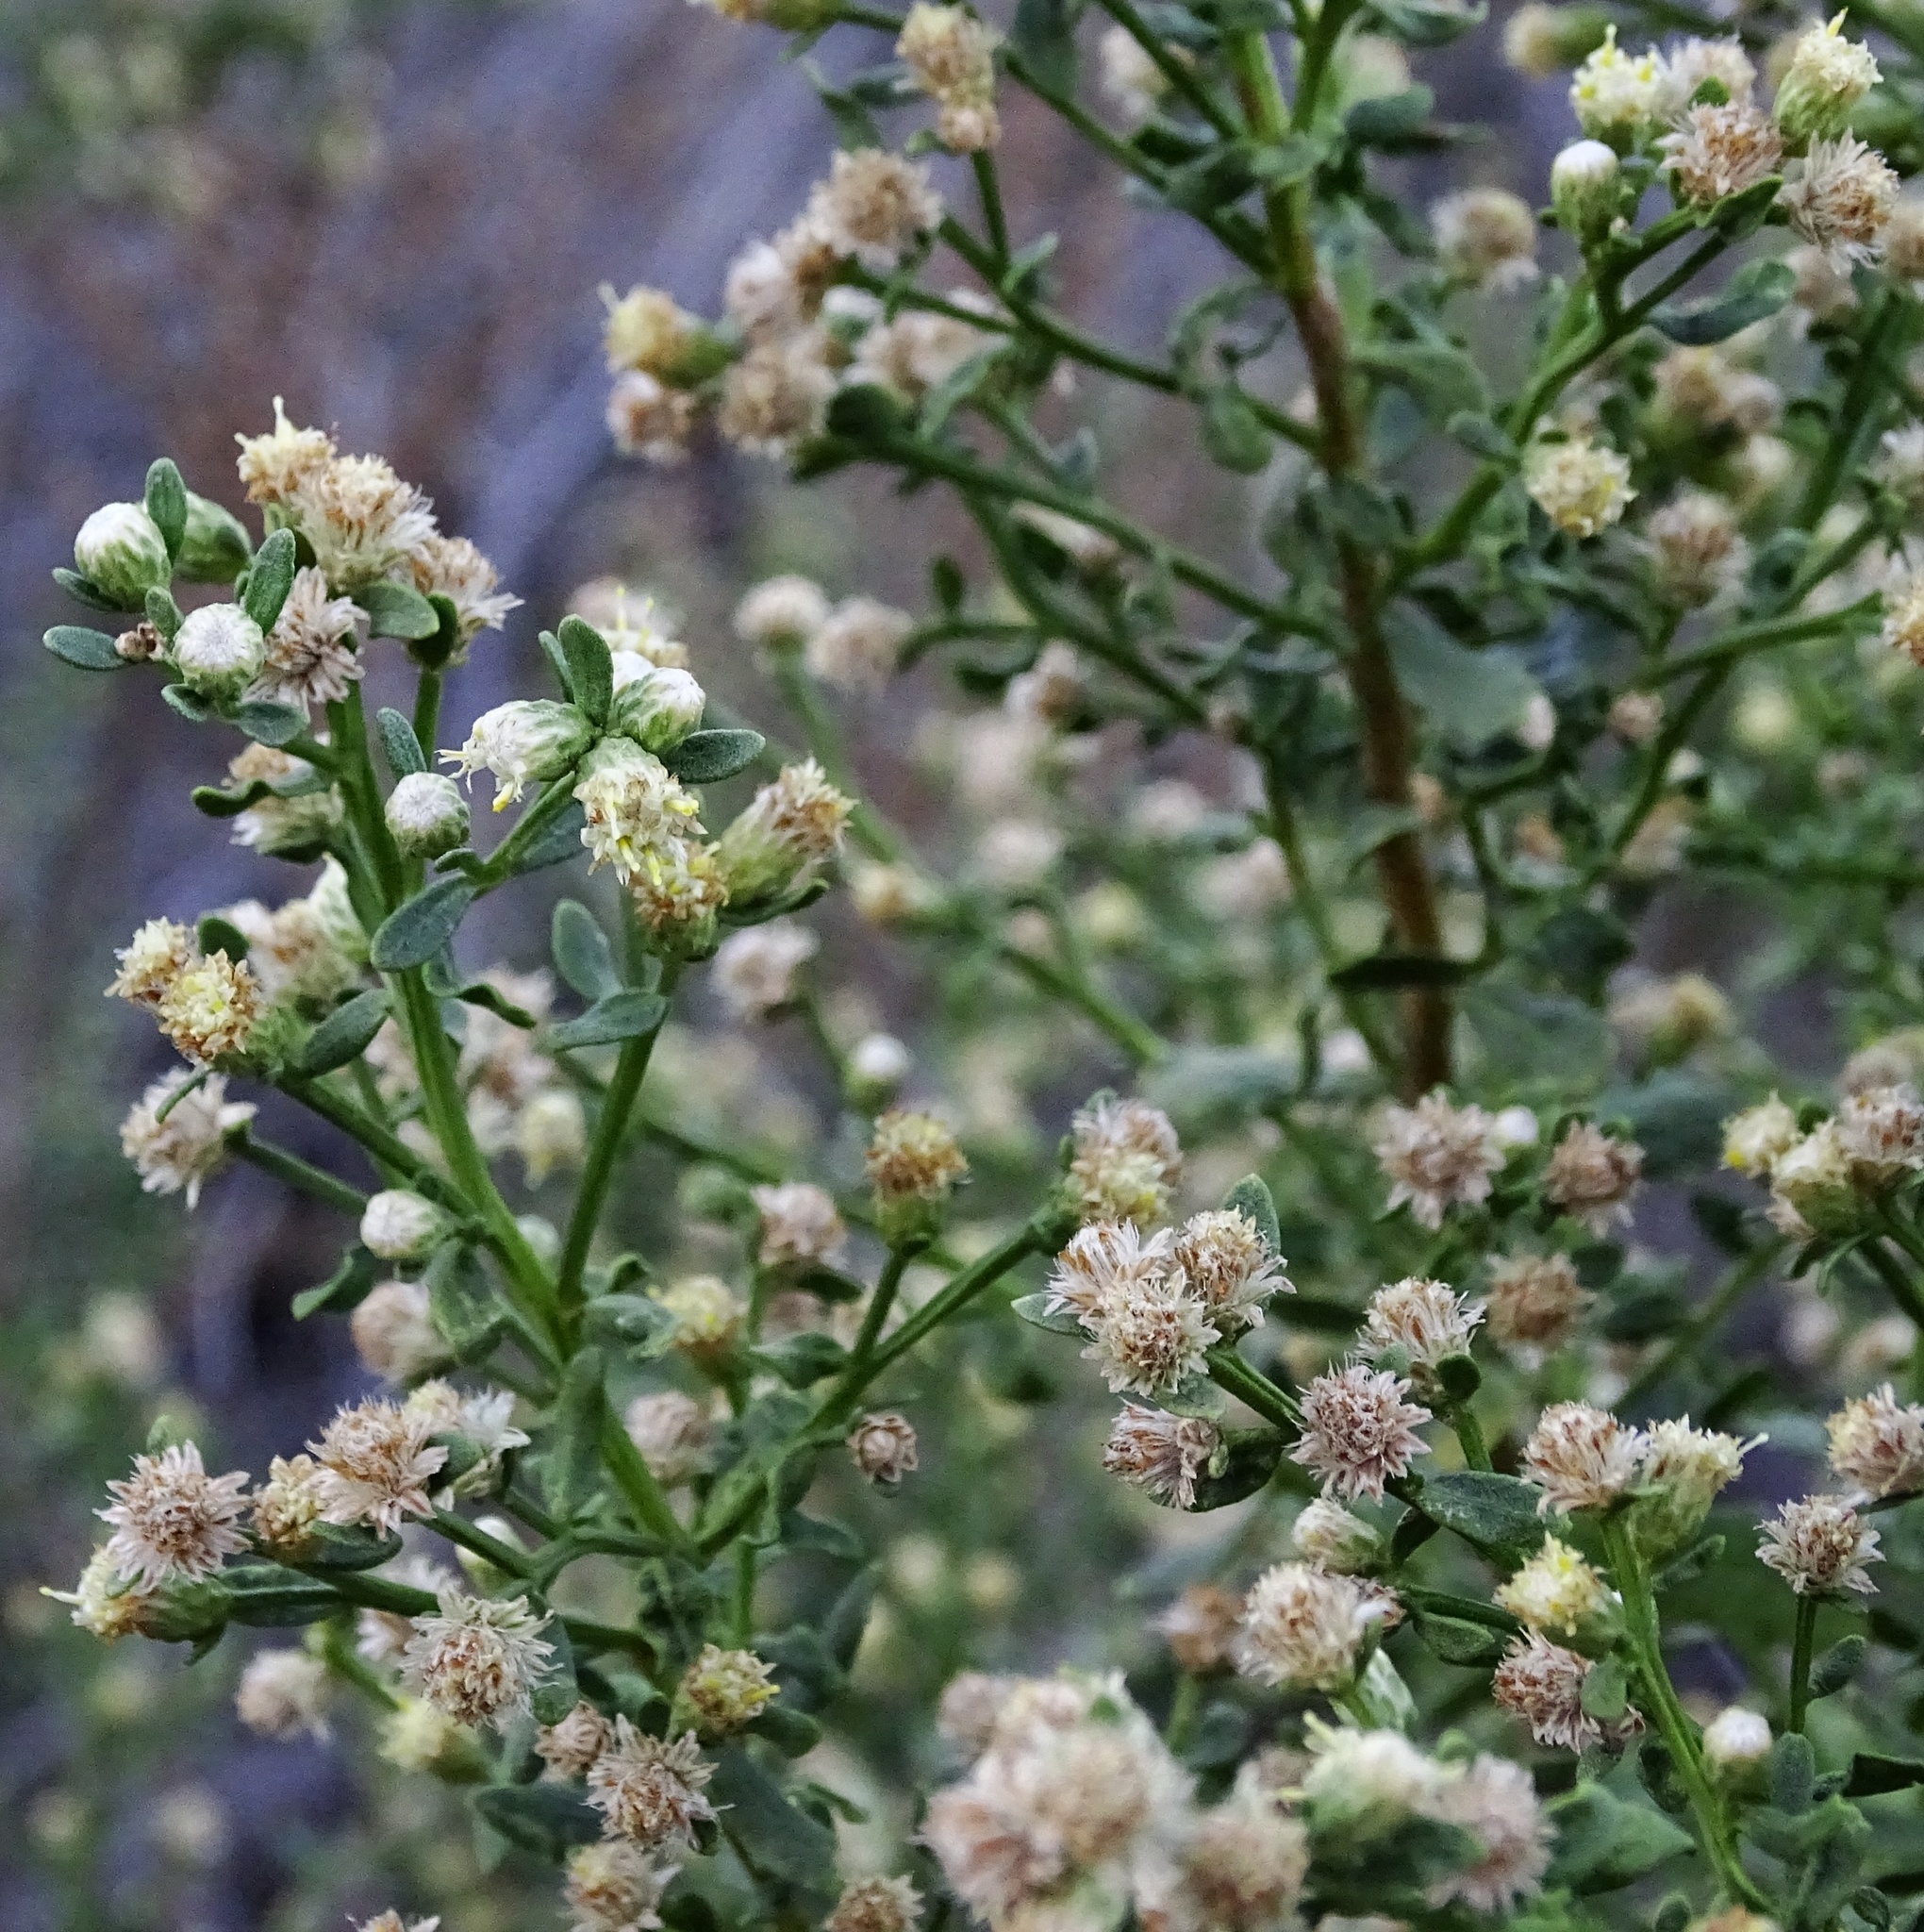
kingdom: Plantae
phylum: Tracheophyta
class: Magnoliopsida
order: Asterales
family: Asteraceae
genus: Baccharis
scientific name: Baccharis pilularis
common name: Coyotebrush
